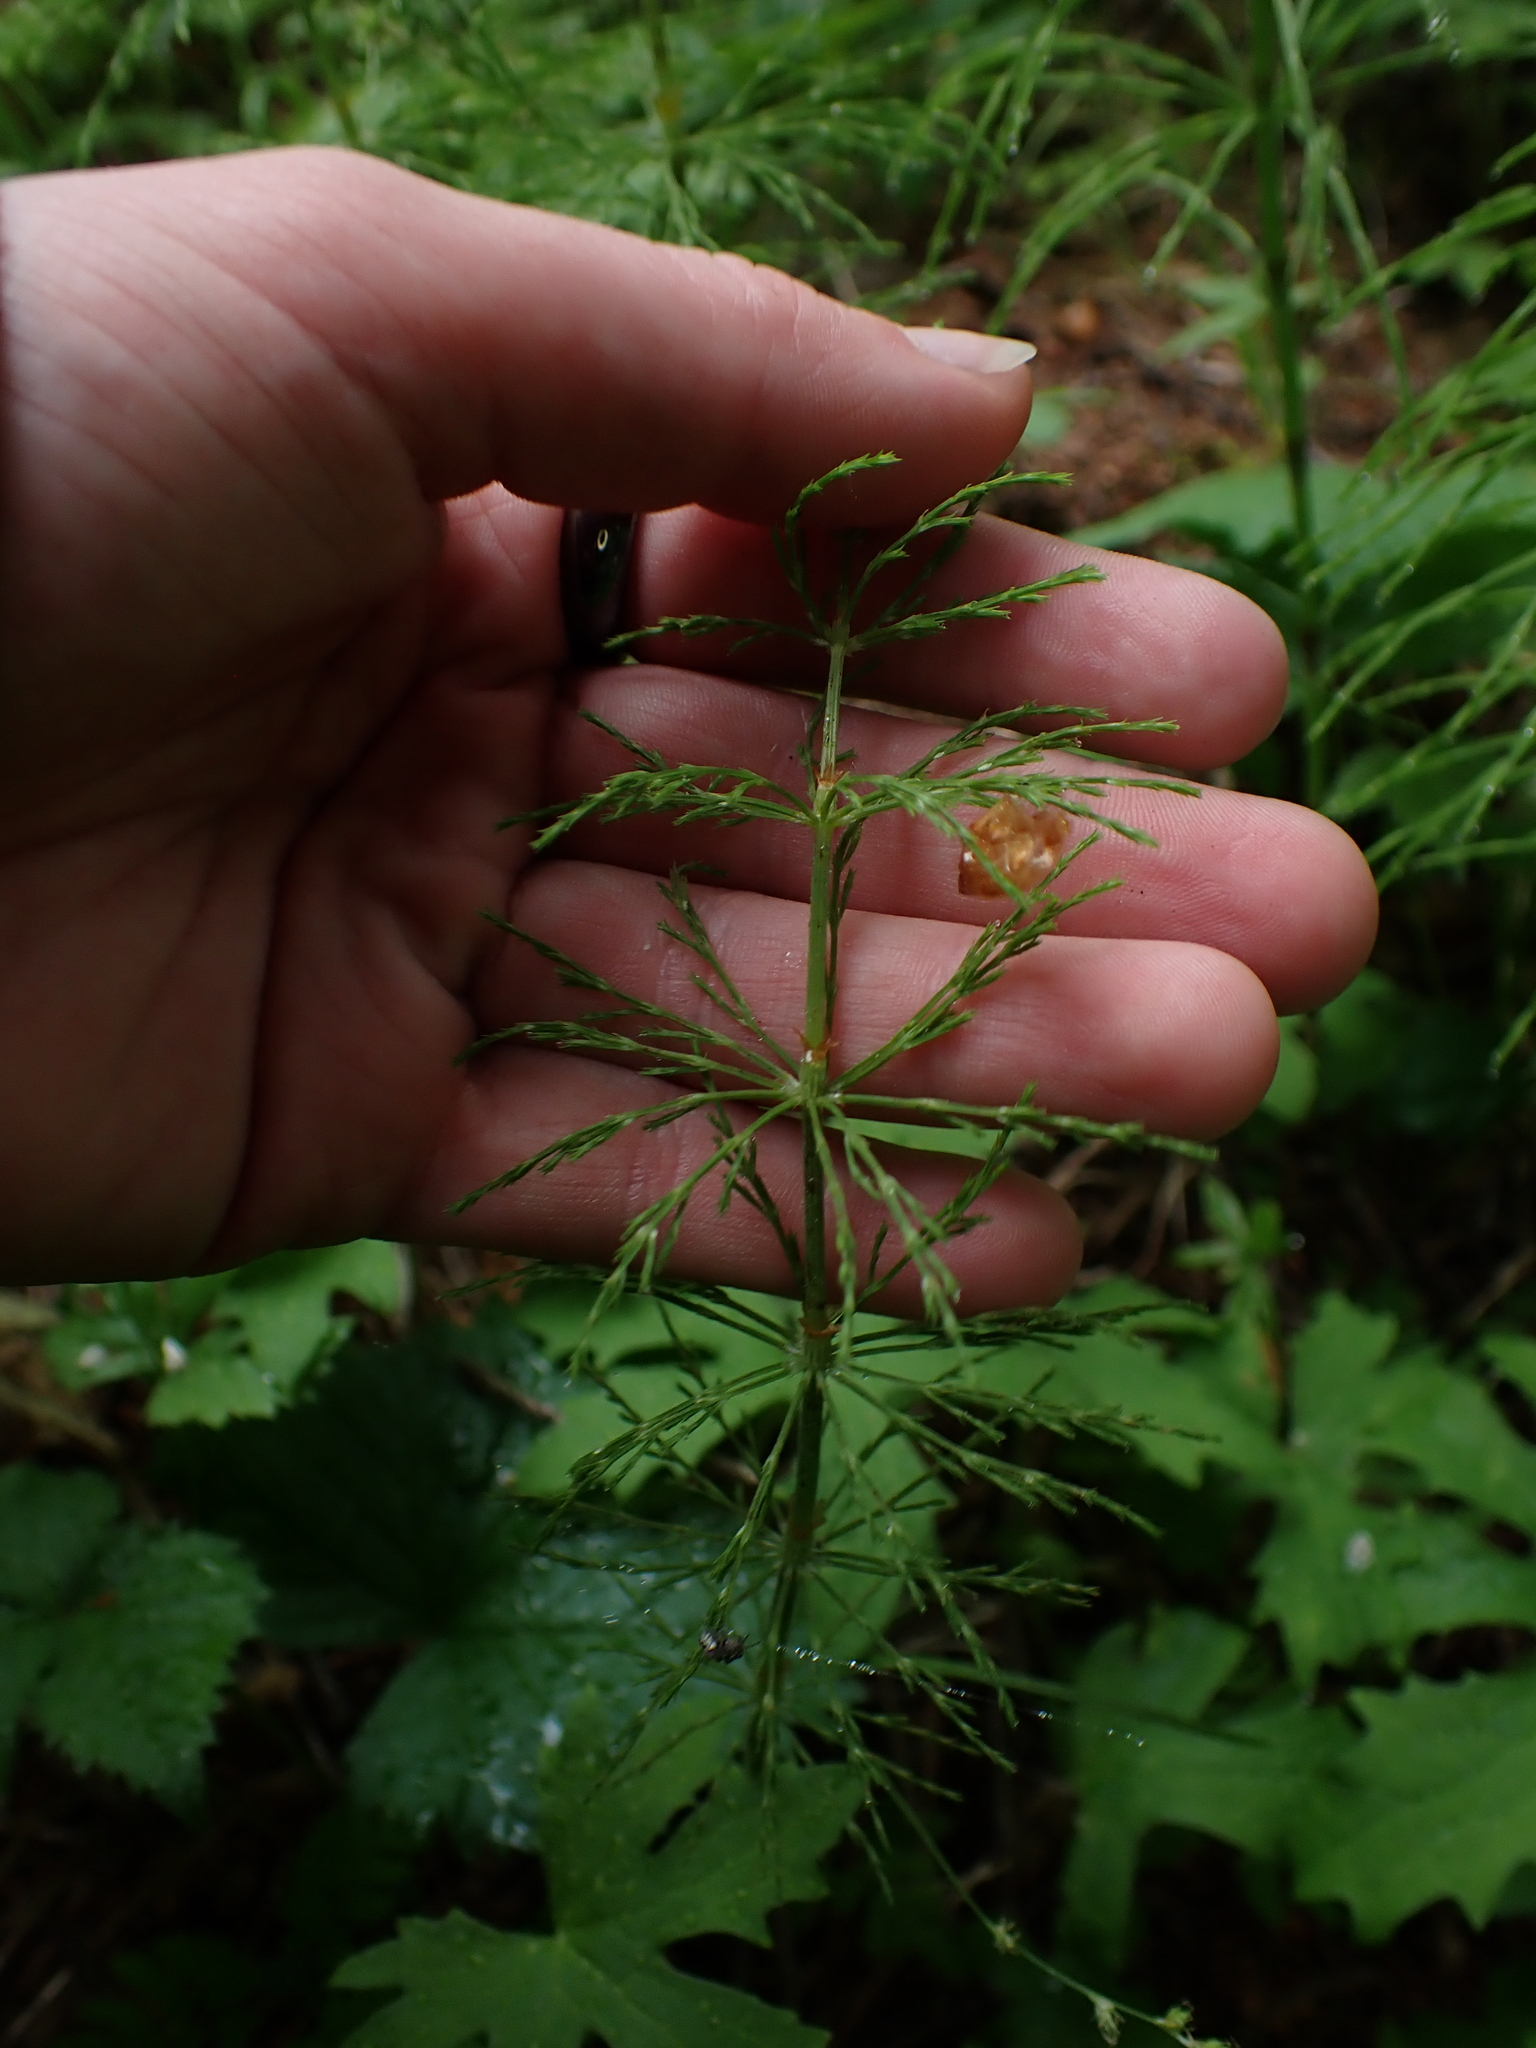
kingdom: Plantae
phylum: Tracheophyta
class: Polypodiopsida
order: Equisetales
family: Equisetaceae
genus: Equisetum
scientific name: Equisetum sylvaticum
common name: Wood horsetail
